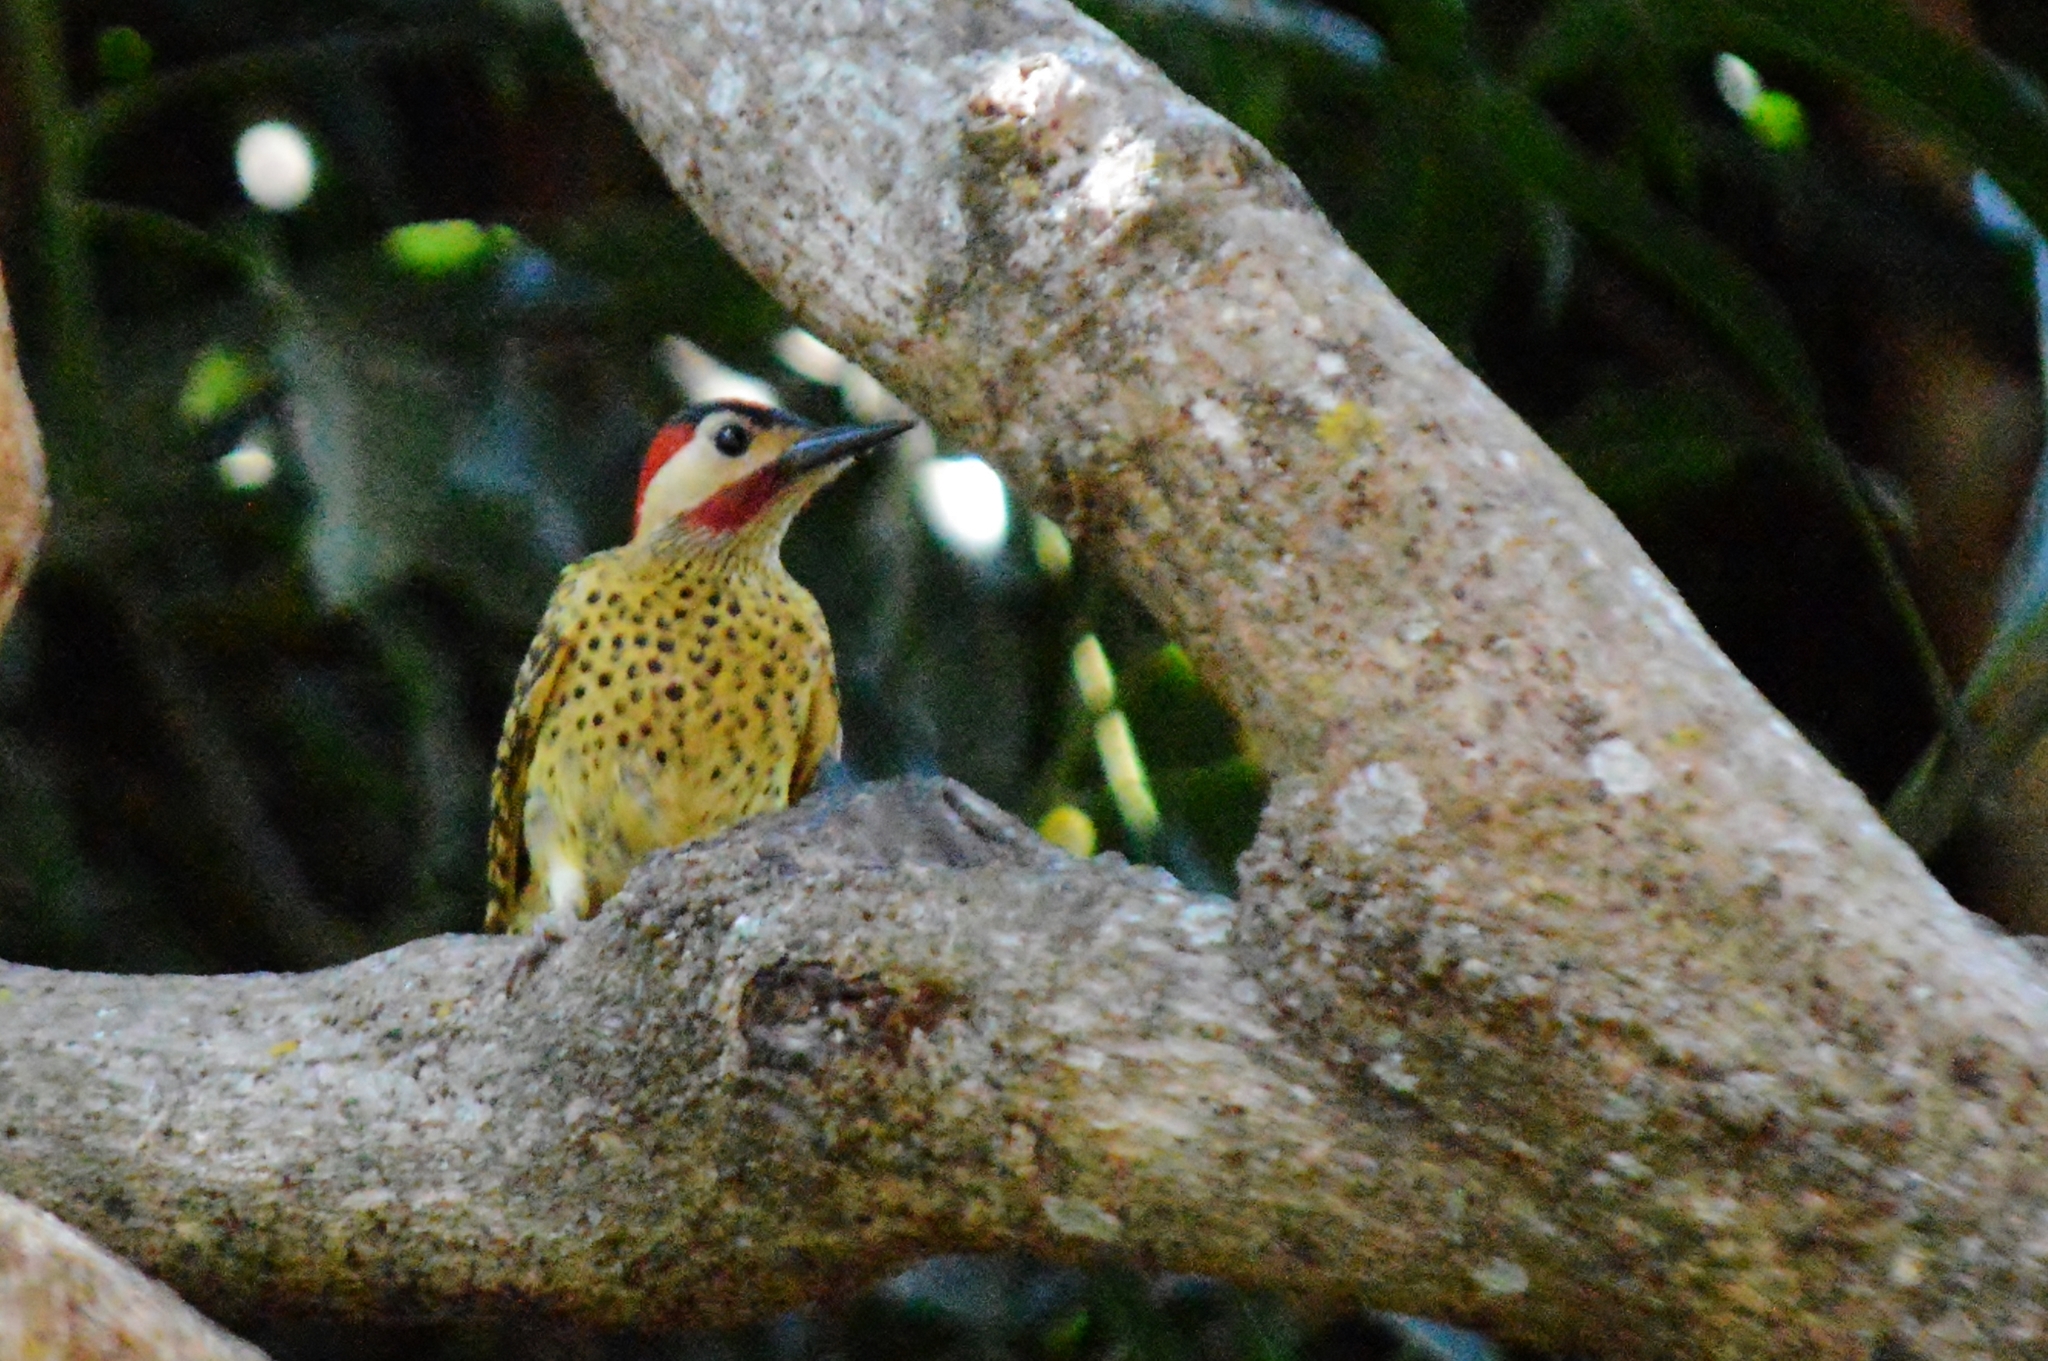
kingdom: Animalia
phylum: Chordata
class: Aves
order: Piciformes
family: Picidae
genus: Colaptes
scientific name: Colaptes melanochloros
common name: Green-barred woodpecker
